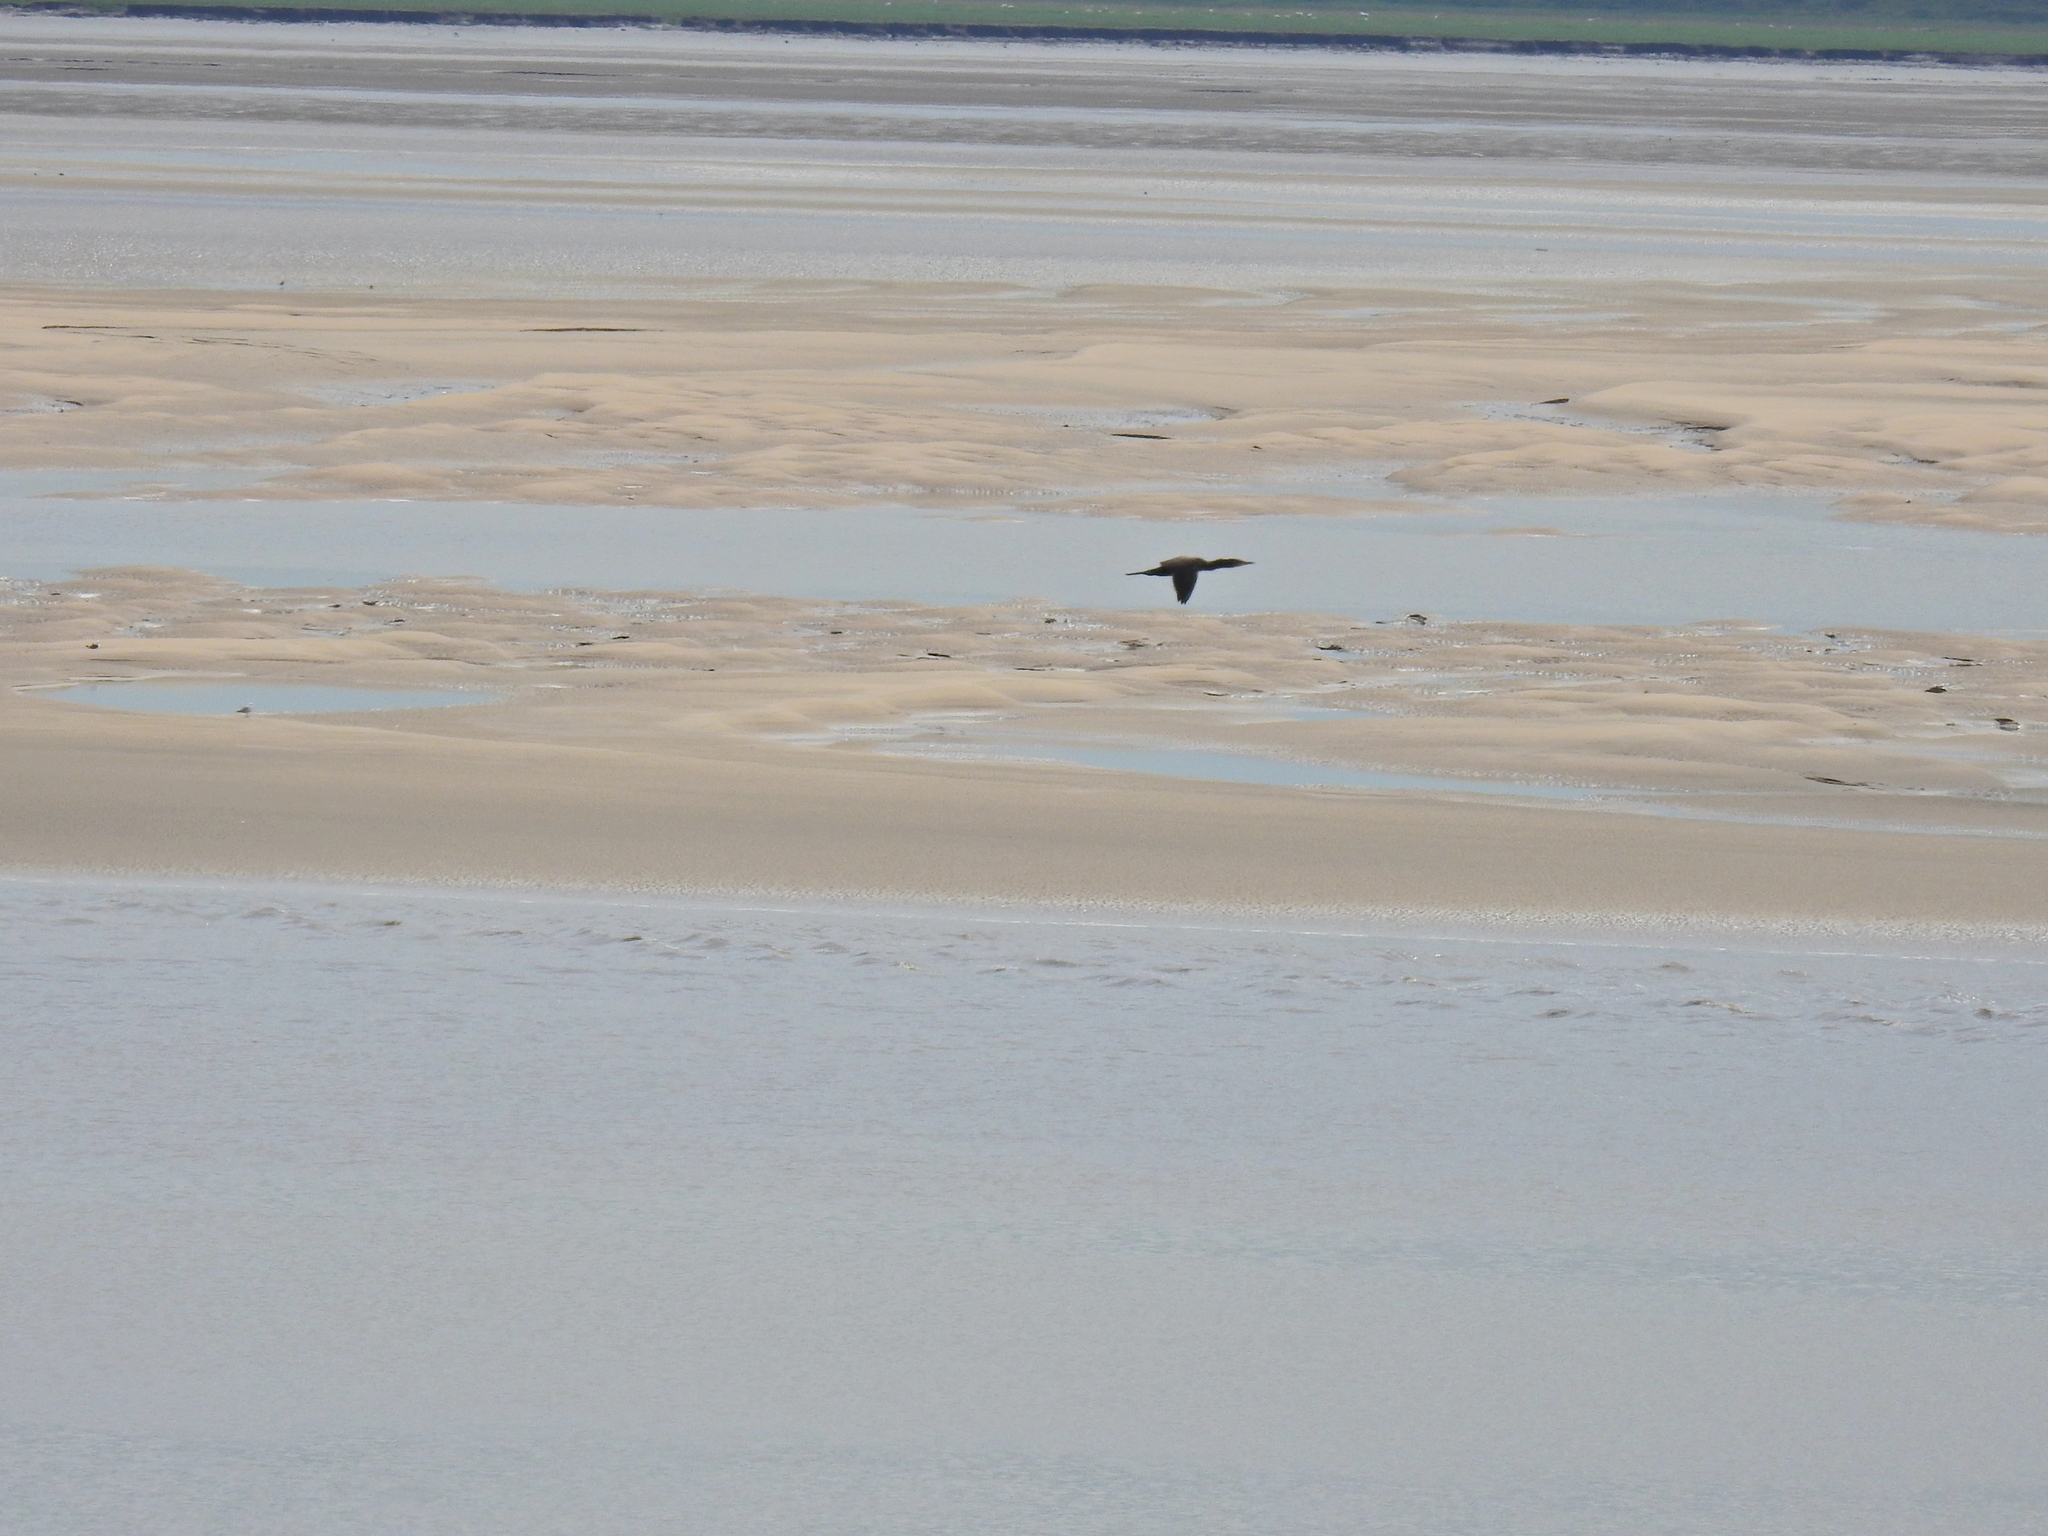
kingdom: Animalia
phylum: Chordata
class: Aves
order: Suliformes
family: Phalacrocoracidae
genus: Phalacrocorax
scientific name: Phalacrocorax carbo
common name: Great cormorant
